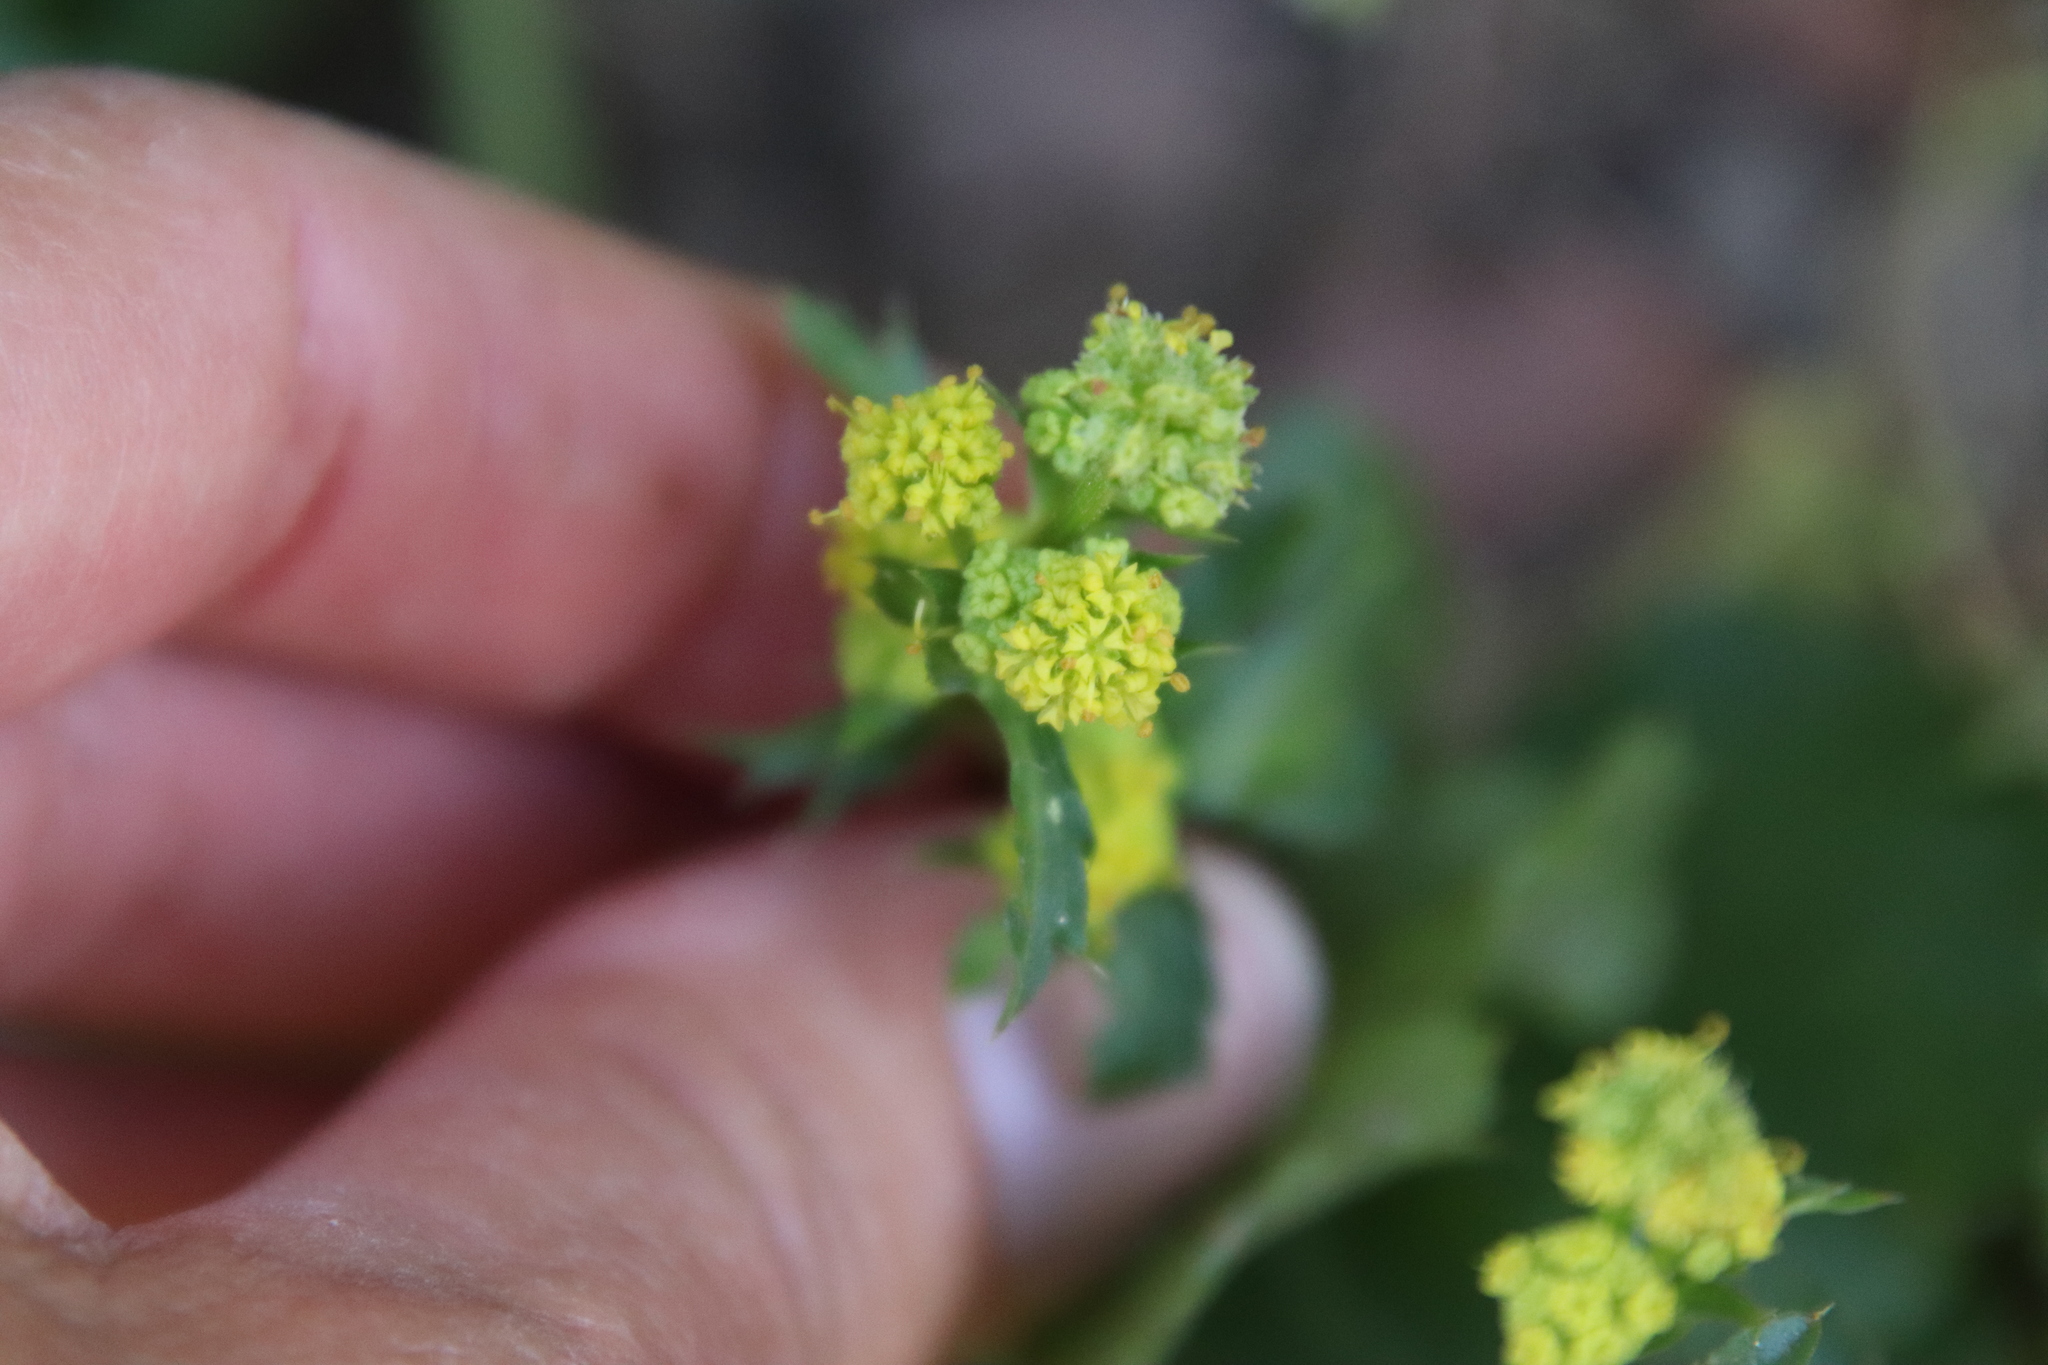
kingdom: Plantae
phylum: Tracheophyta
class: Magnoliopsida
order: Apiales
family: Apiaceae
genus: Sanicula
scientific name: Sanicula crassicaulis
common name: Western snakeroot
